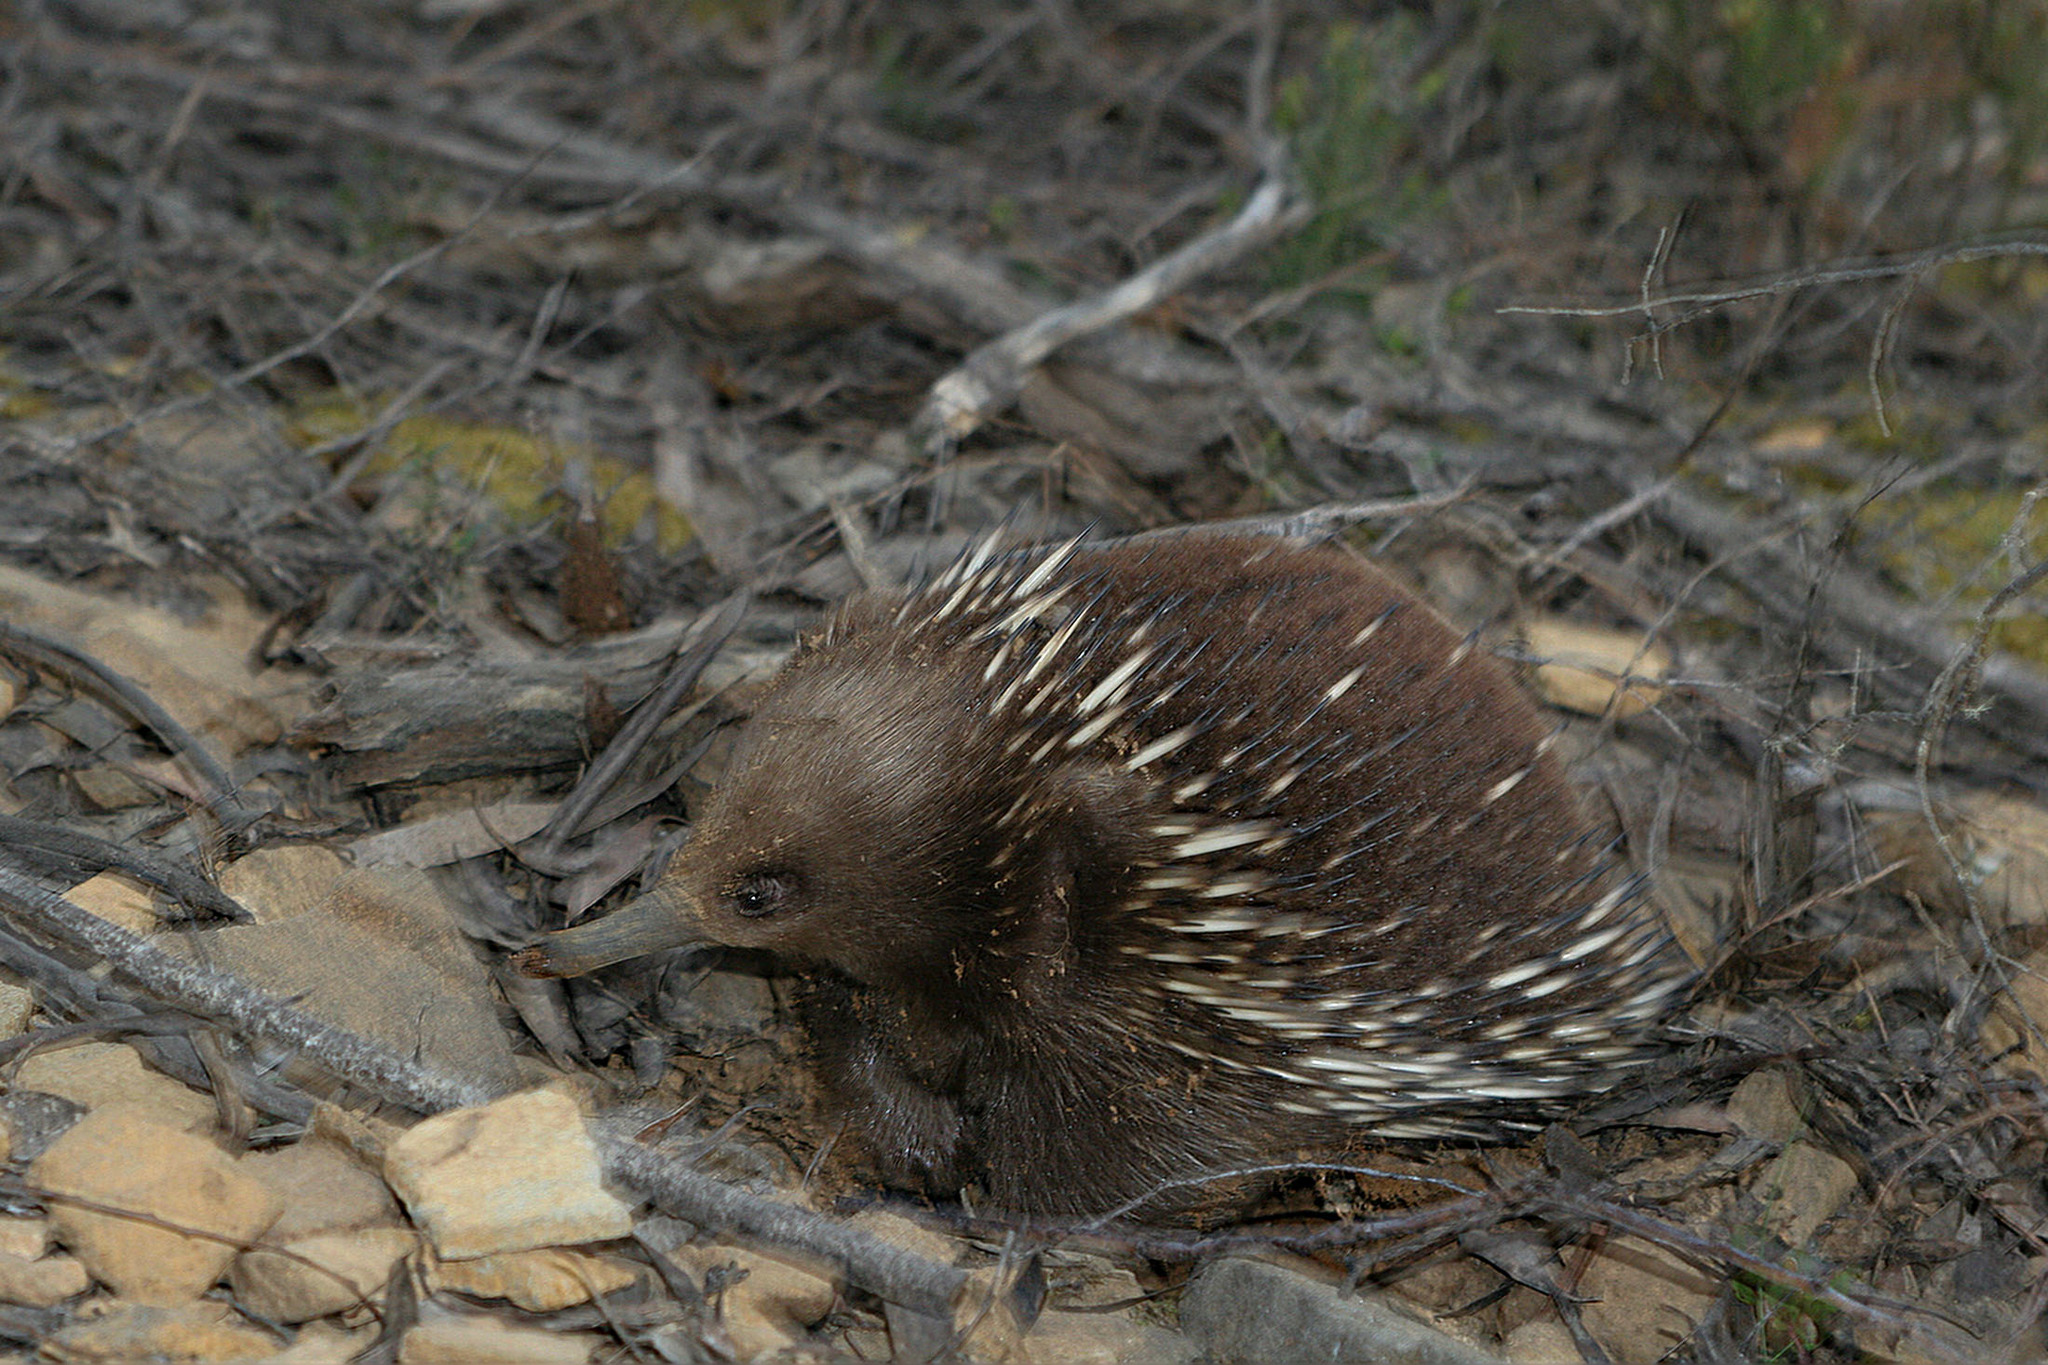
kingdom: Animalia
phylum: Chordata
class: Mammalia
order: Monotremata
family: Tachyglossidae
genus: Tachyglossus
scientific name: Tachyglossus aculeatus
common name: Short-beaked echidna
